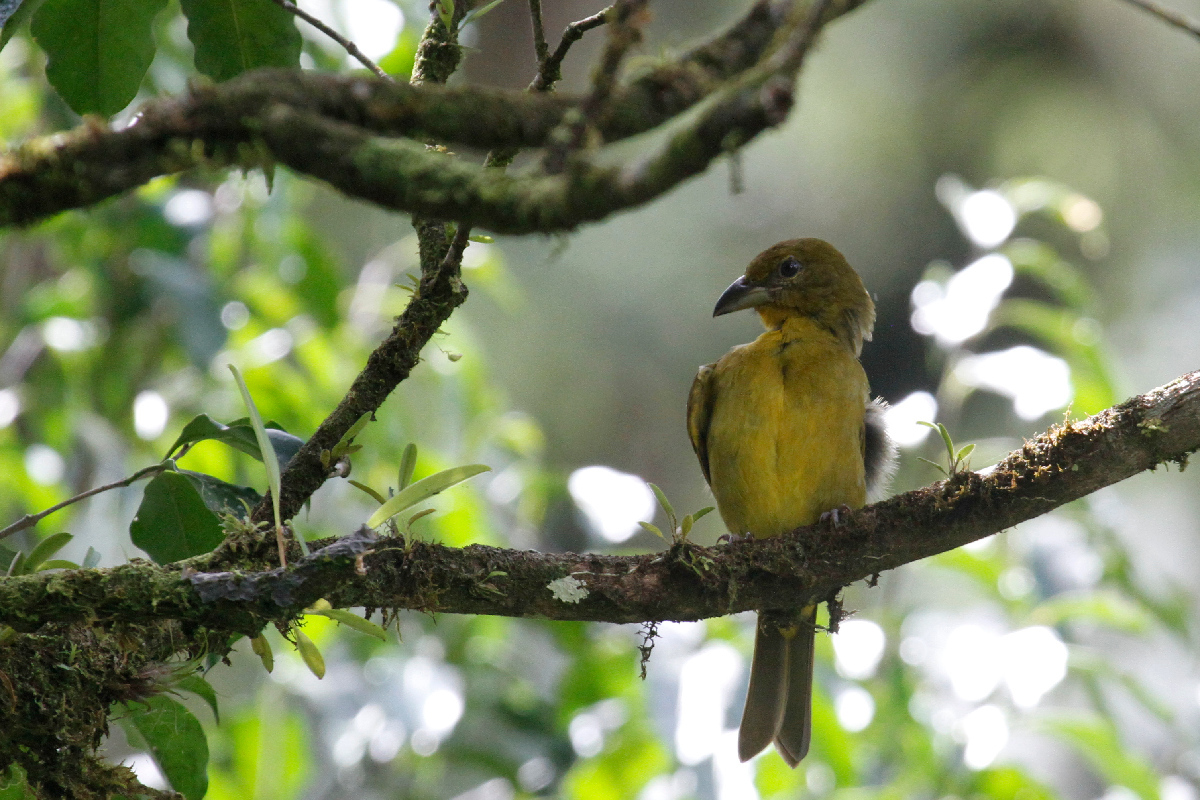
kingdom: Animalia
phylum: Chordata
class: Aves
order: Passeriformes
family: Cardinalidae
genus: Piranga
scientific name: Piranga flava
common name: Red tanager
